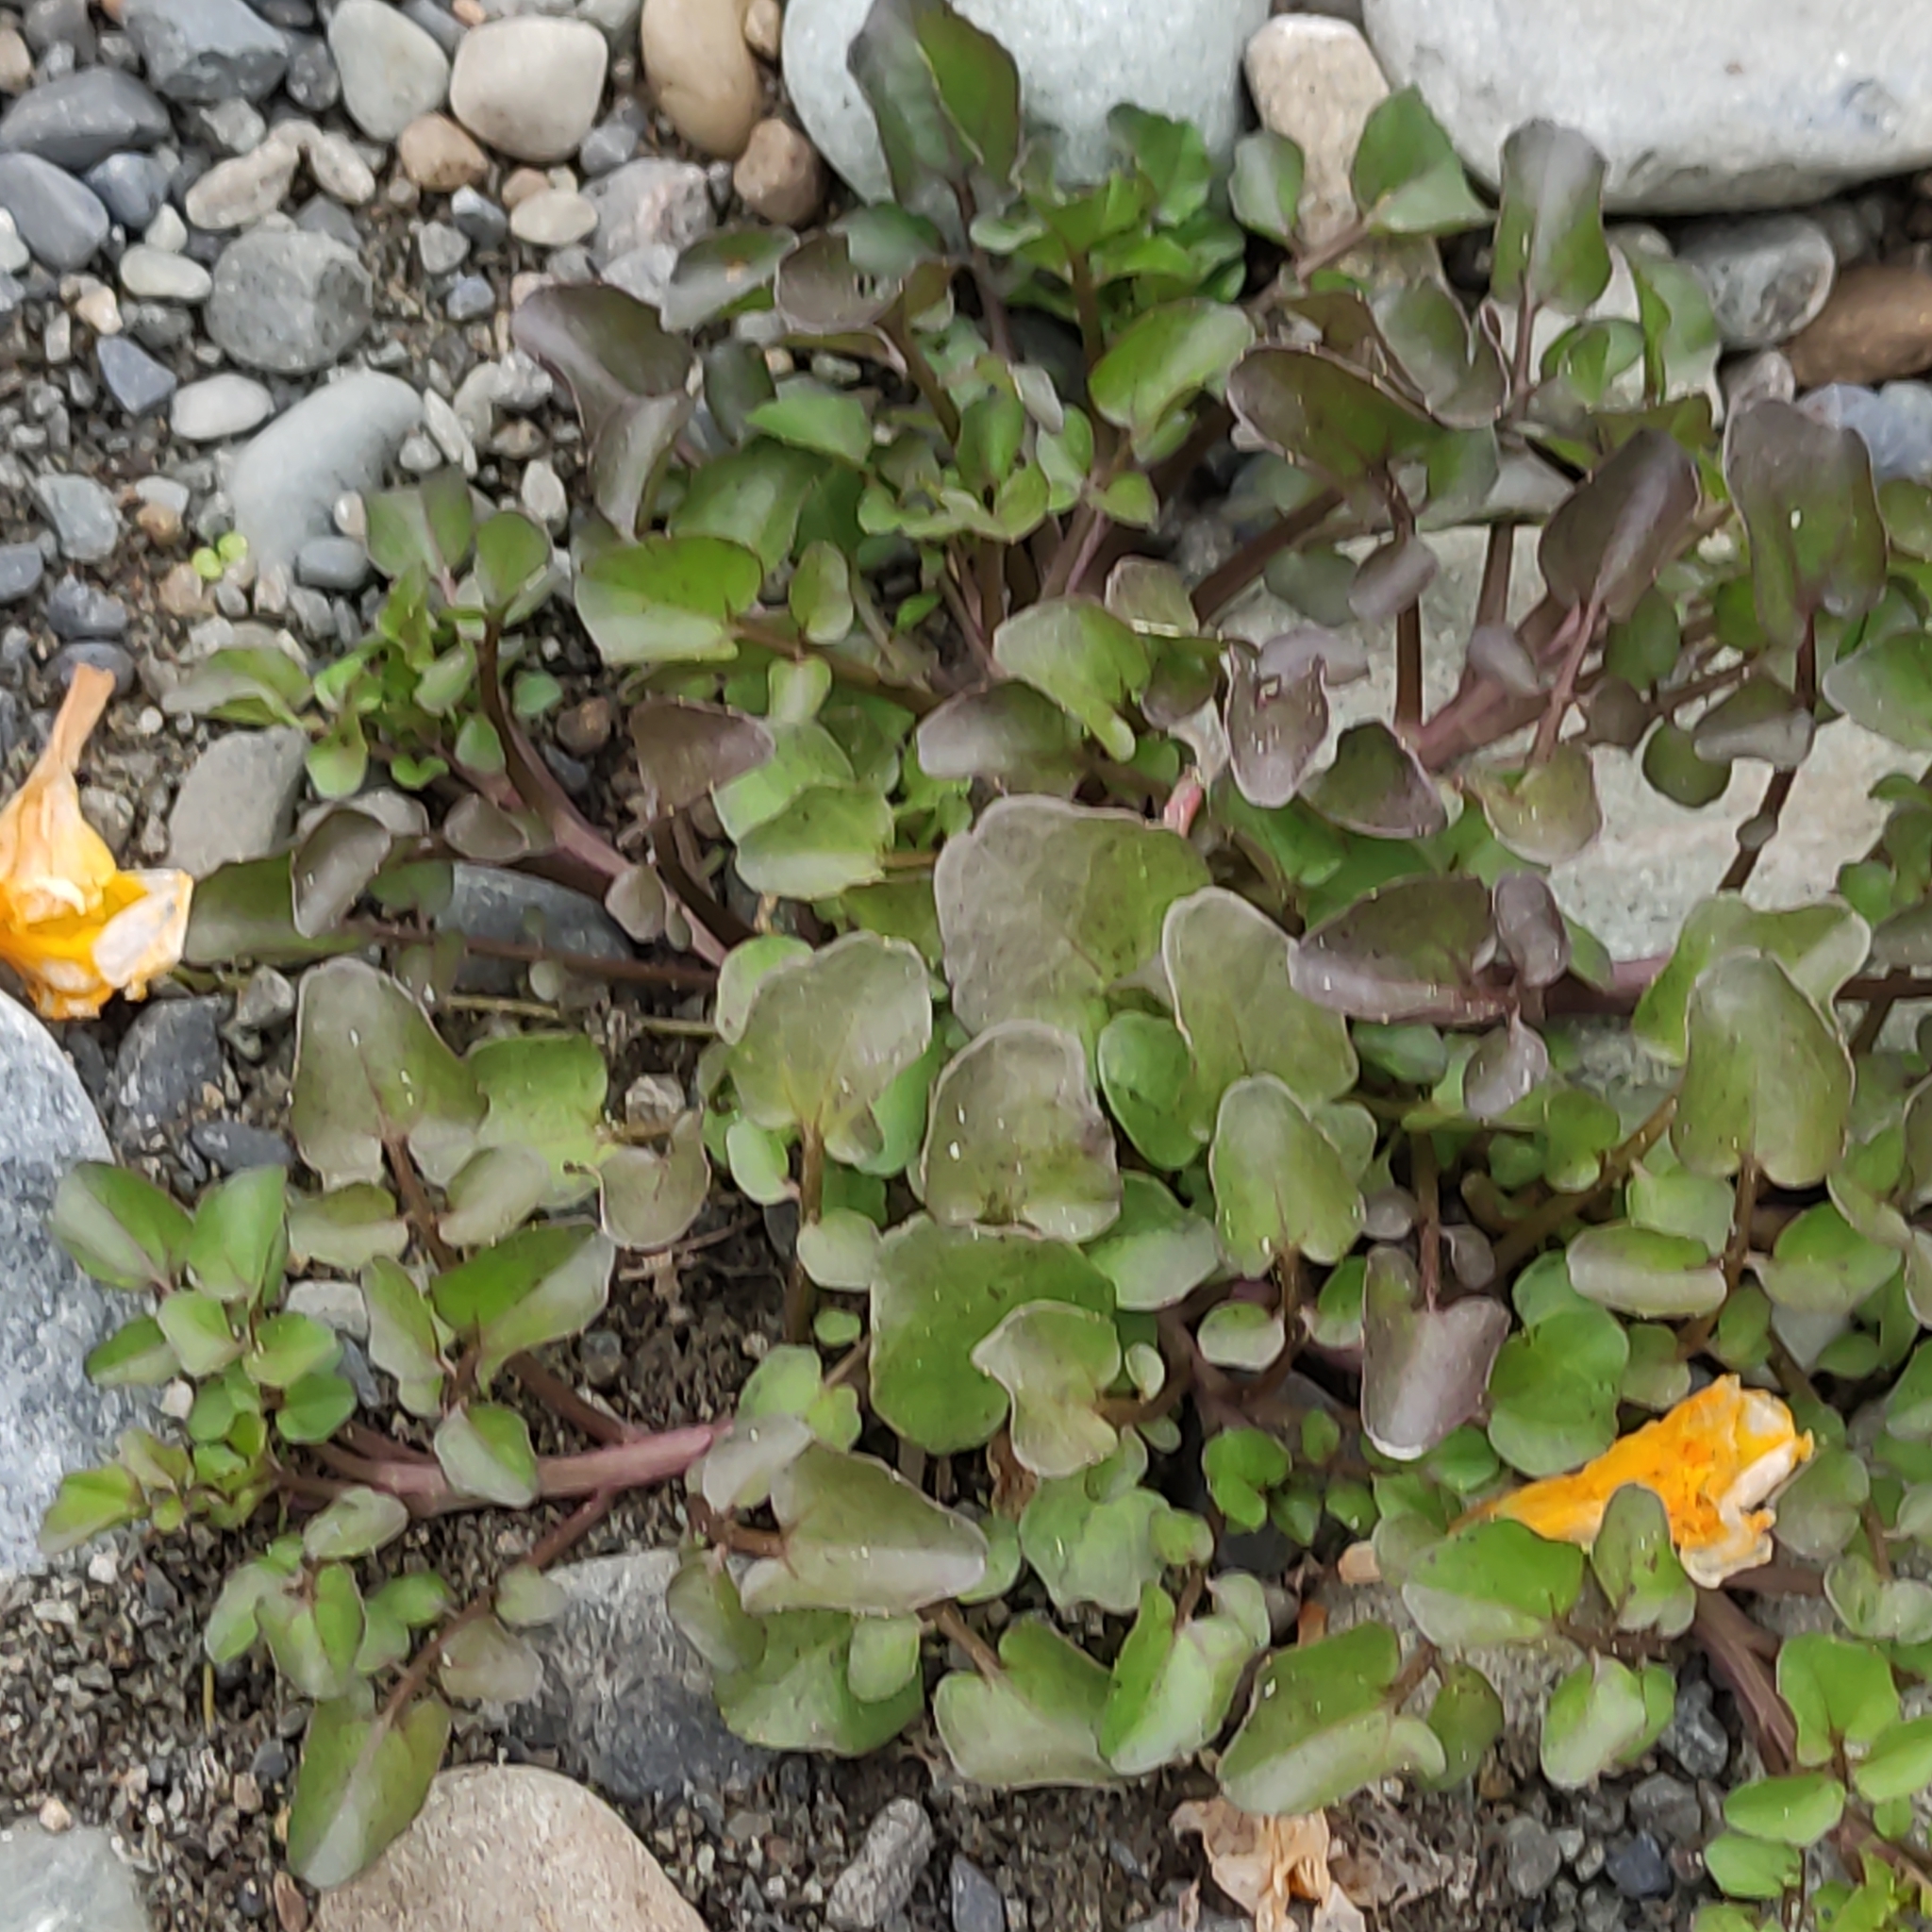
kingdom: Plantae
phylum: Tracheophyta
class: Magnoliopsida
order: Brassicales
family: Brassicaceae
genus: Nasturtium
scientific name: Nasturtium officinale
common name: Watercress
